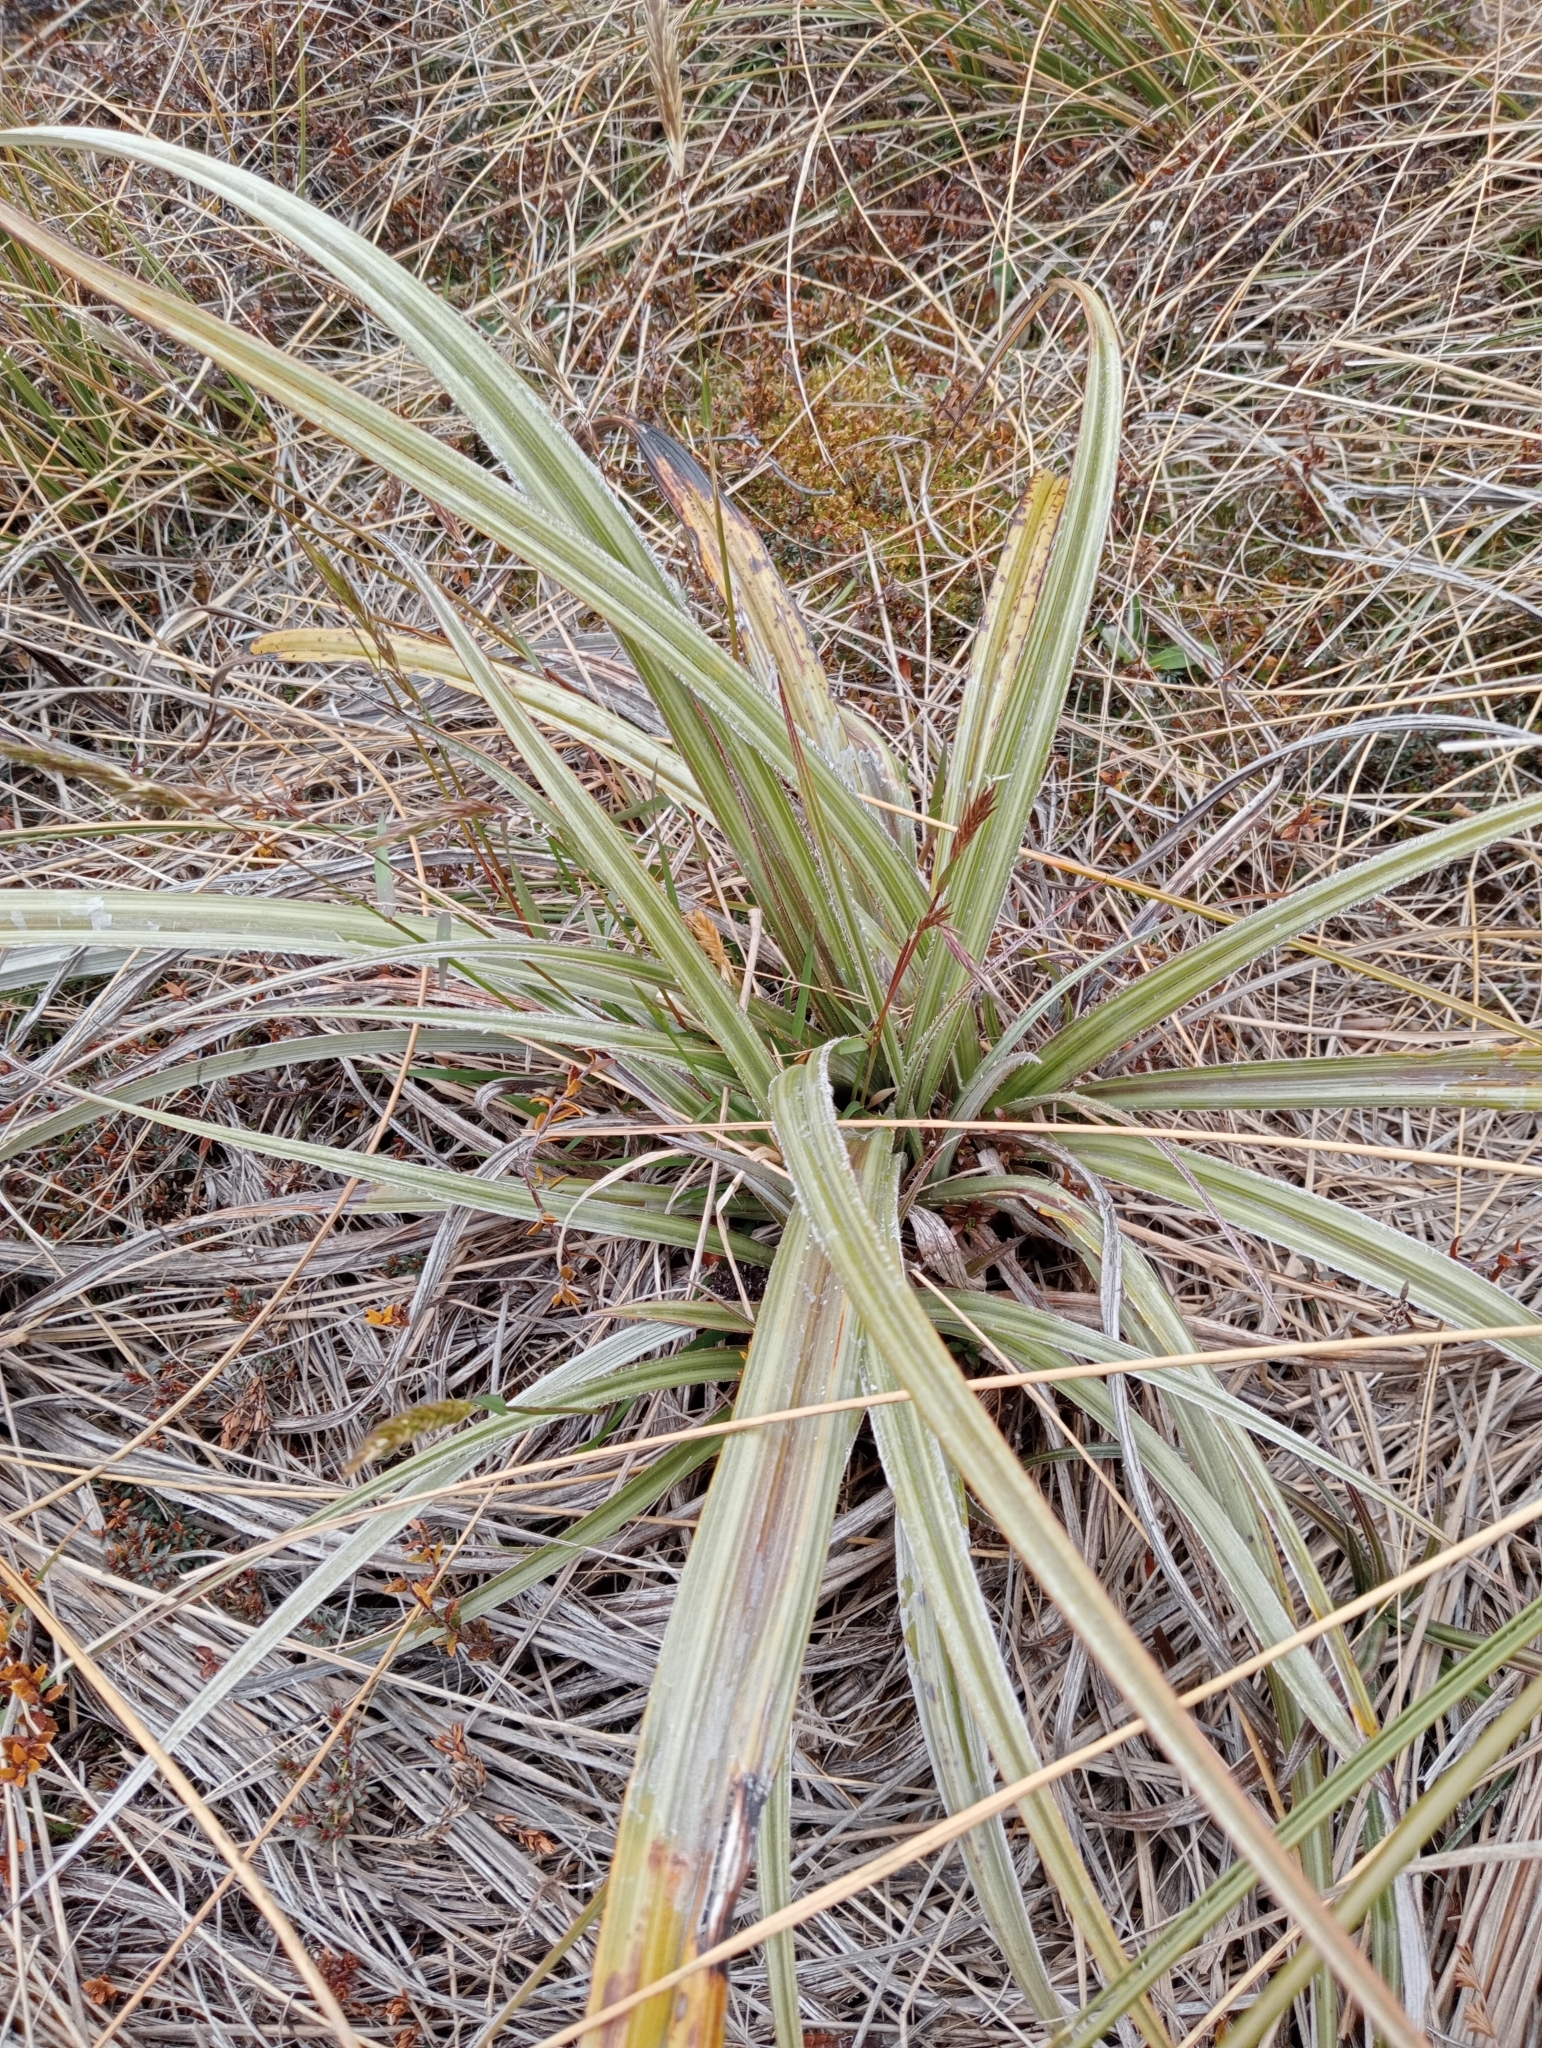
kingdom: Plantae
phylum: Tracheophyta
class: Liliopsida
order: Asparagales
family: Asteliaceae
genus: Astelia
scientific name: Astelia nervosa
